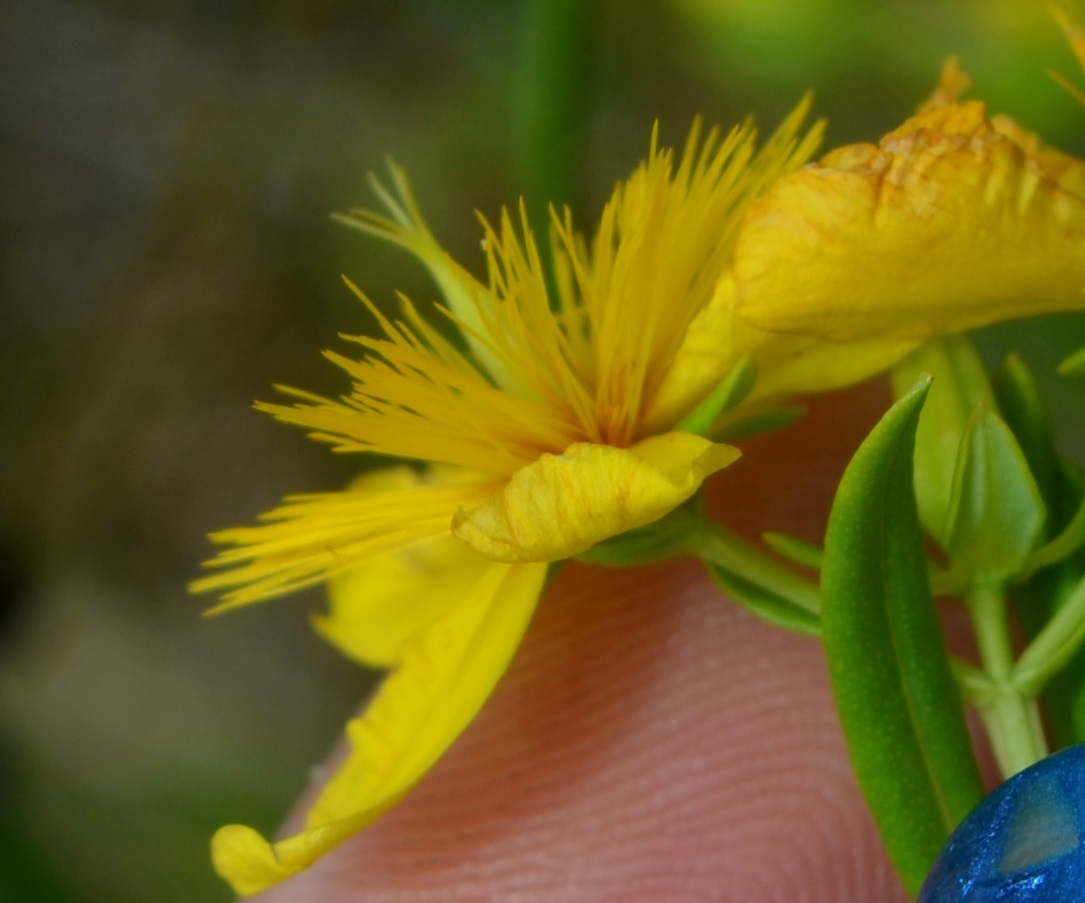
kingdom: Plantae
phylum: Tracheophyta
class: Magnoliopsida
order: Malpighiales
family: Hypericaceae
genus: Hypericum
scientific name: Hypericum kalmianum
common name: Kalm's st. john's-wort
